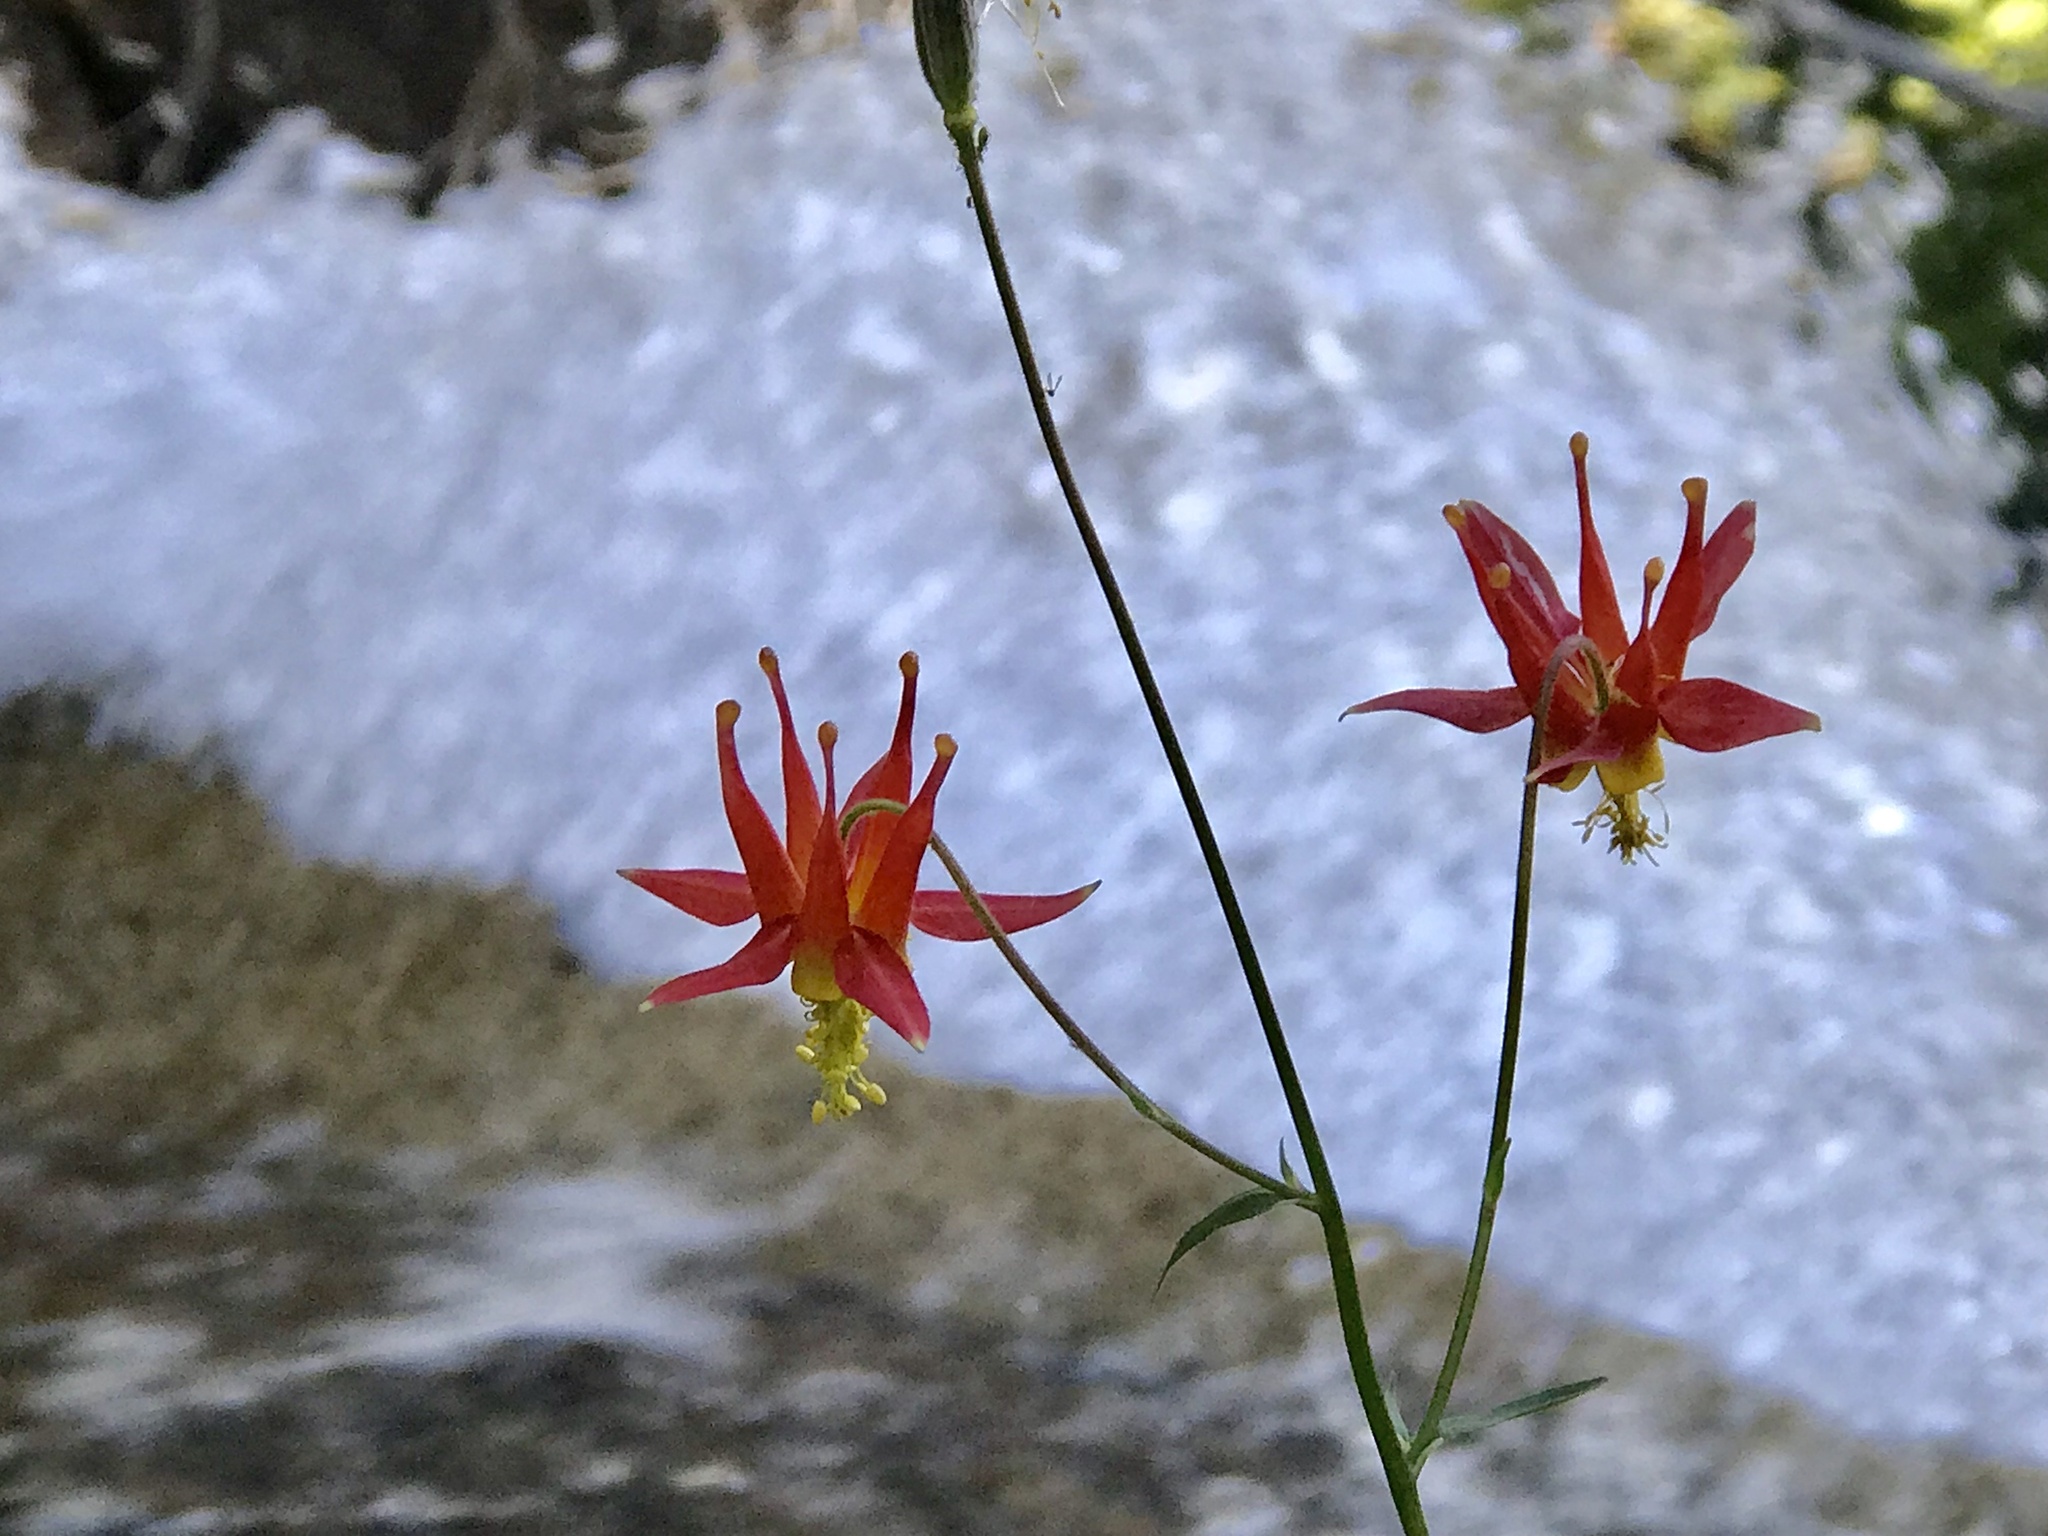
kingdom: Plantae
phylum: Tracheophyta
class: Magnoliopsida
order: Ranunculales
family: Ranunculaceae
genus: Aquilegia
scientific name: Aquilegia formosa
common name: Sitka columbine
